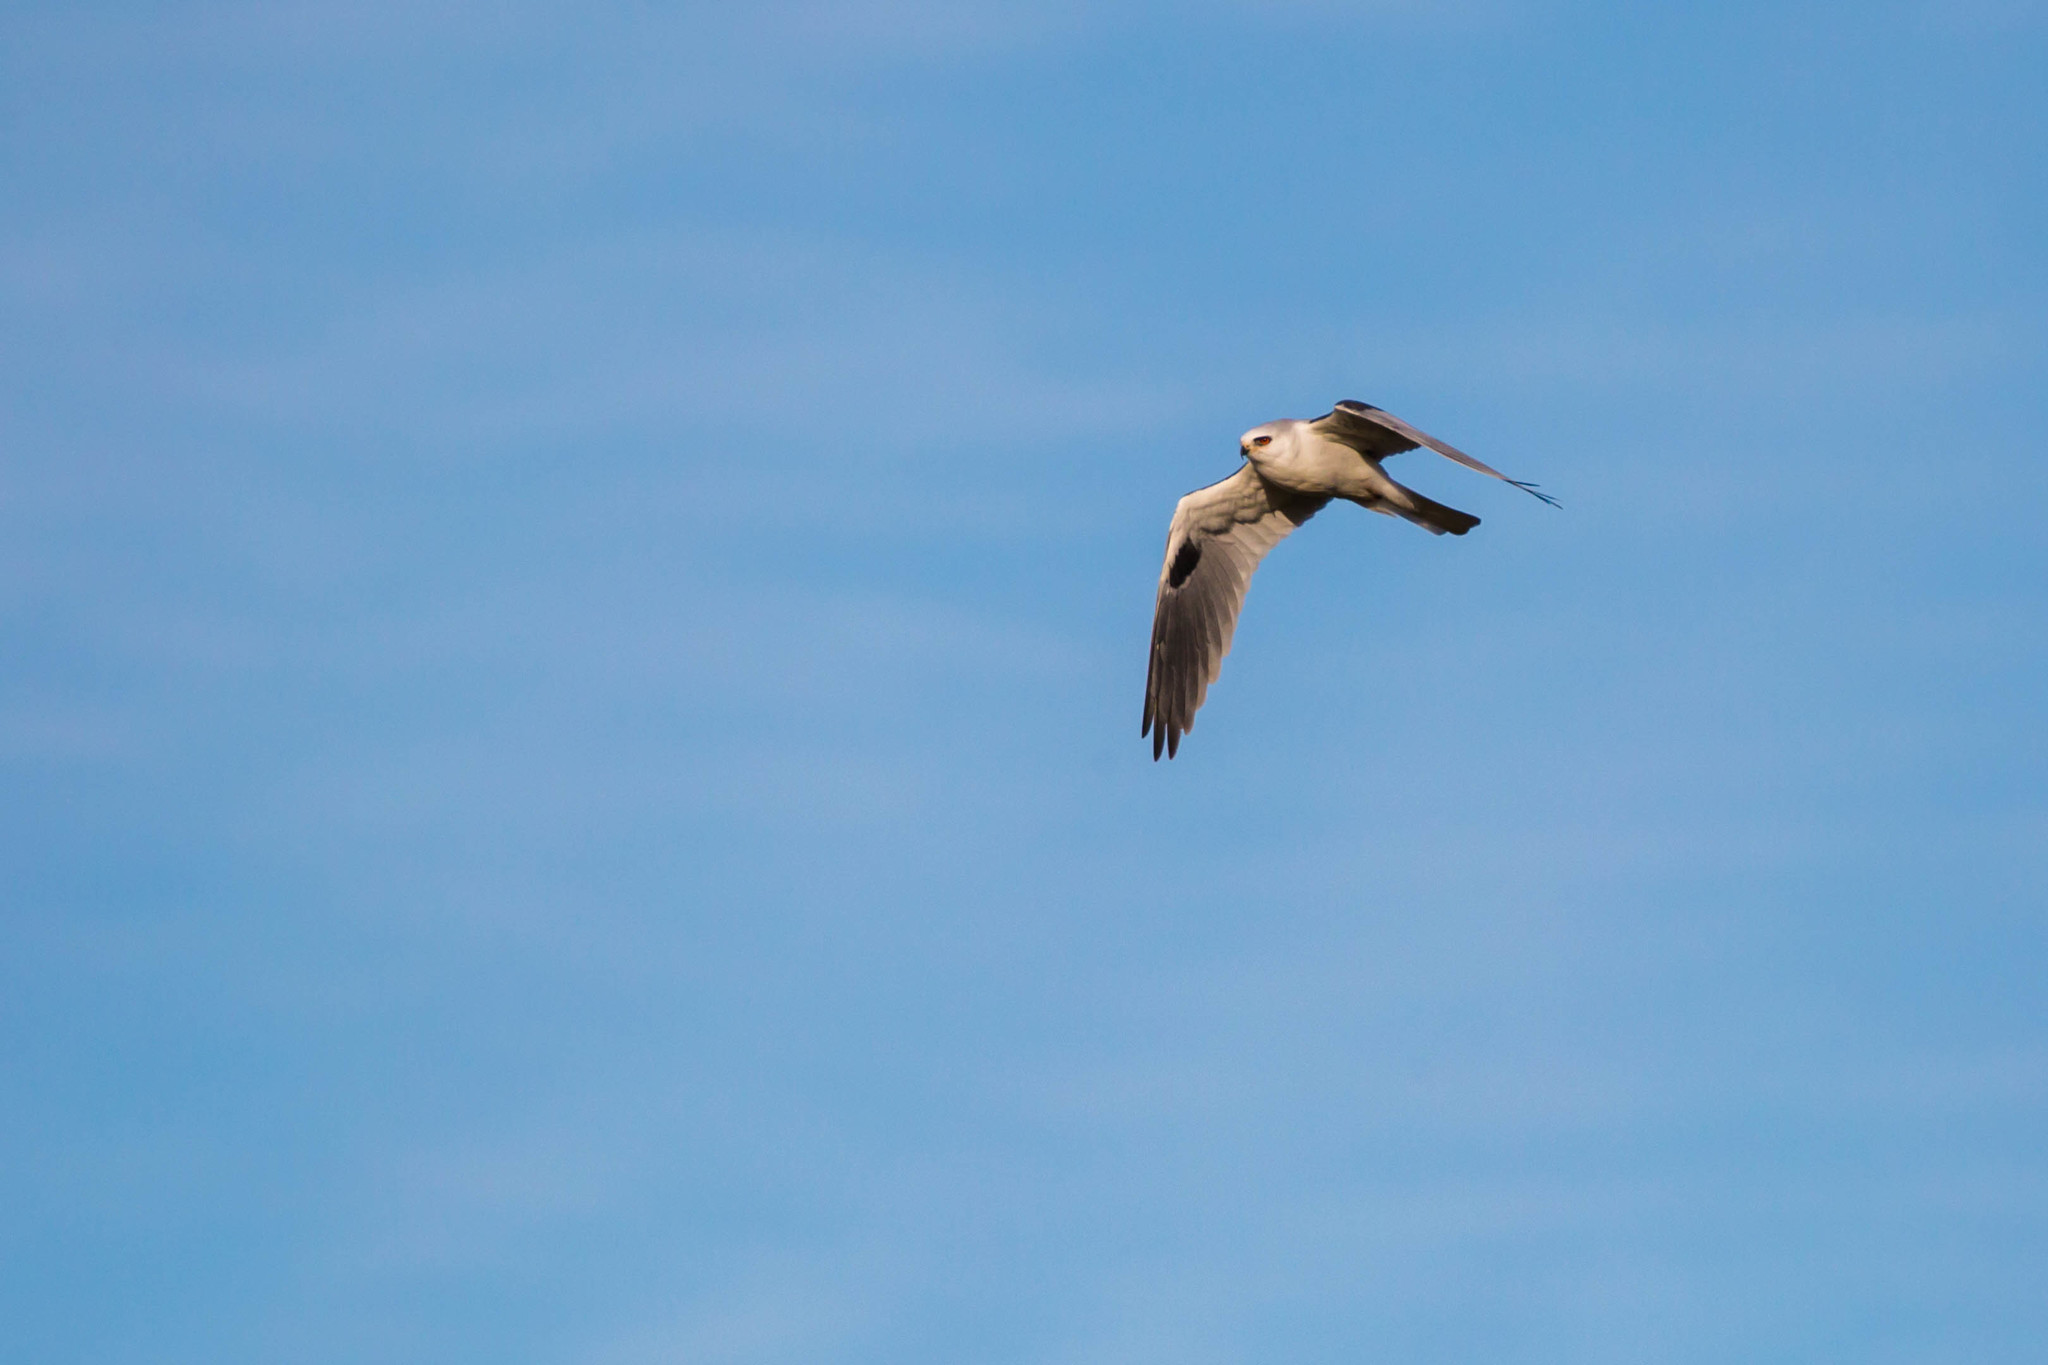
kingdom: Animalia
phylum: Chordata
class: Aves
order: Accipitriformes
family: Accipitridae
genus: Elanus
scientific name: Elanus leucurus
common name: White-tailed kite
